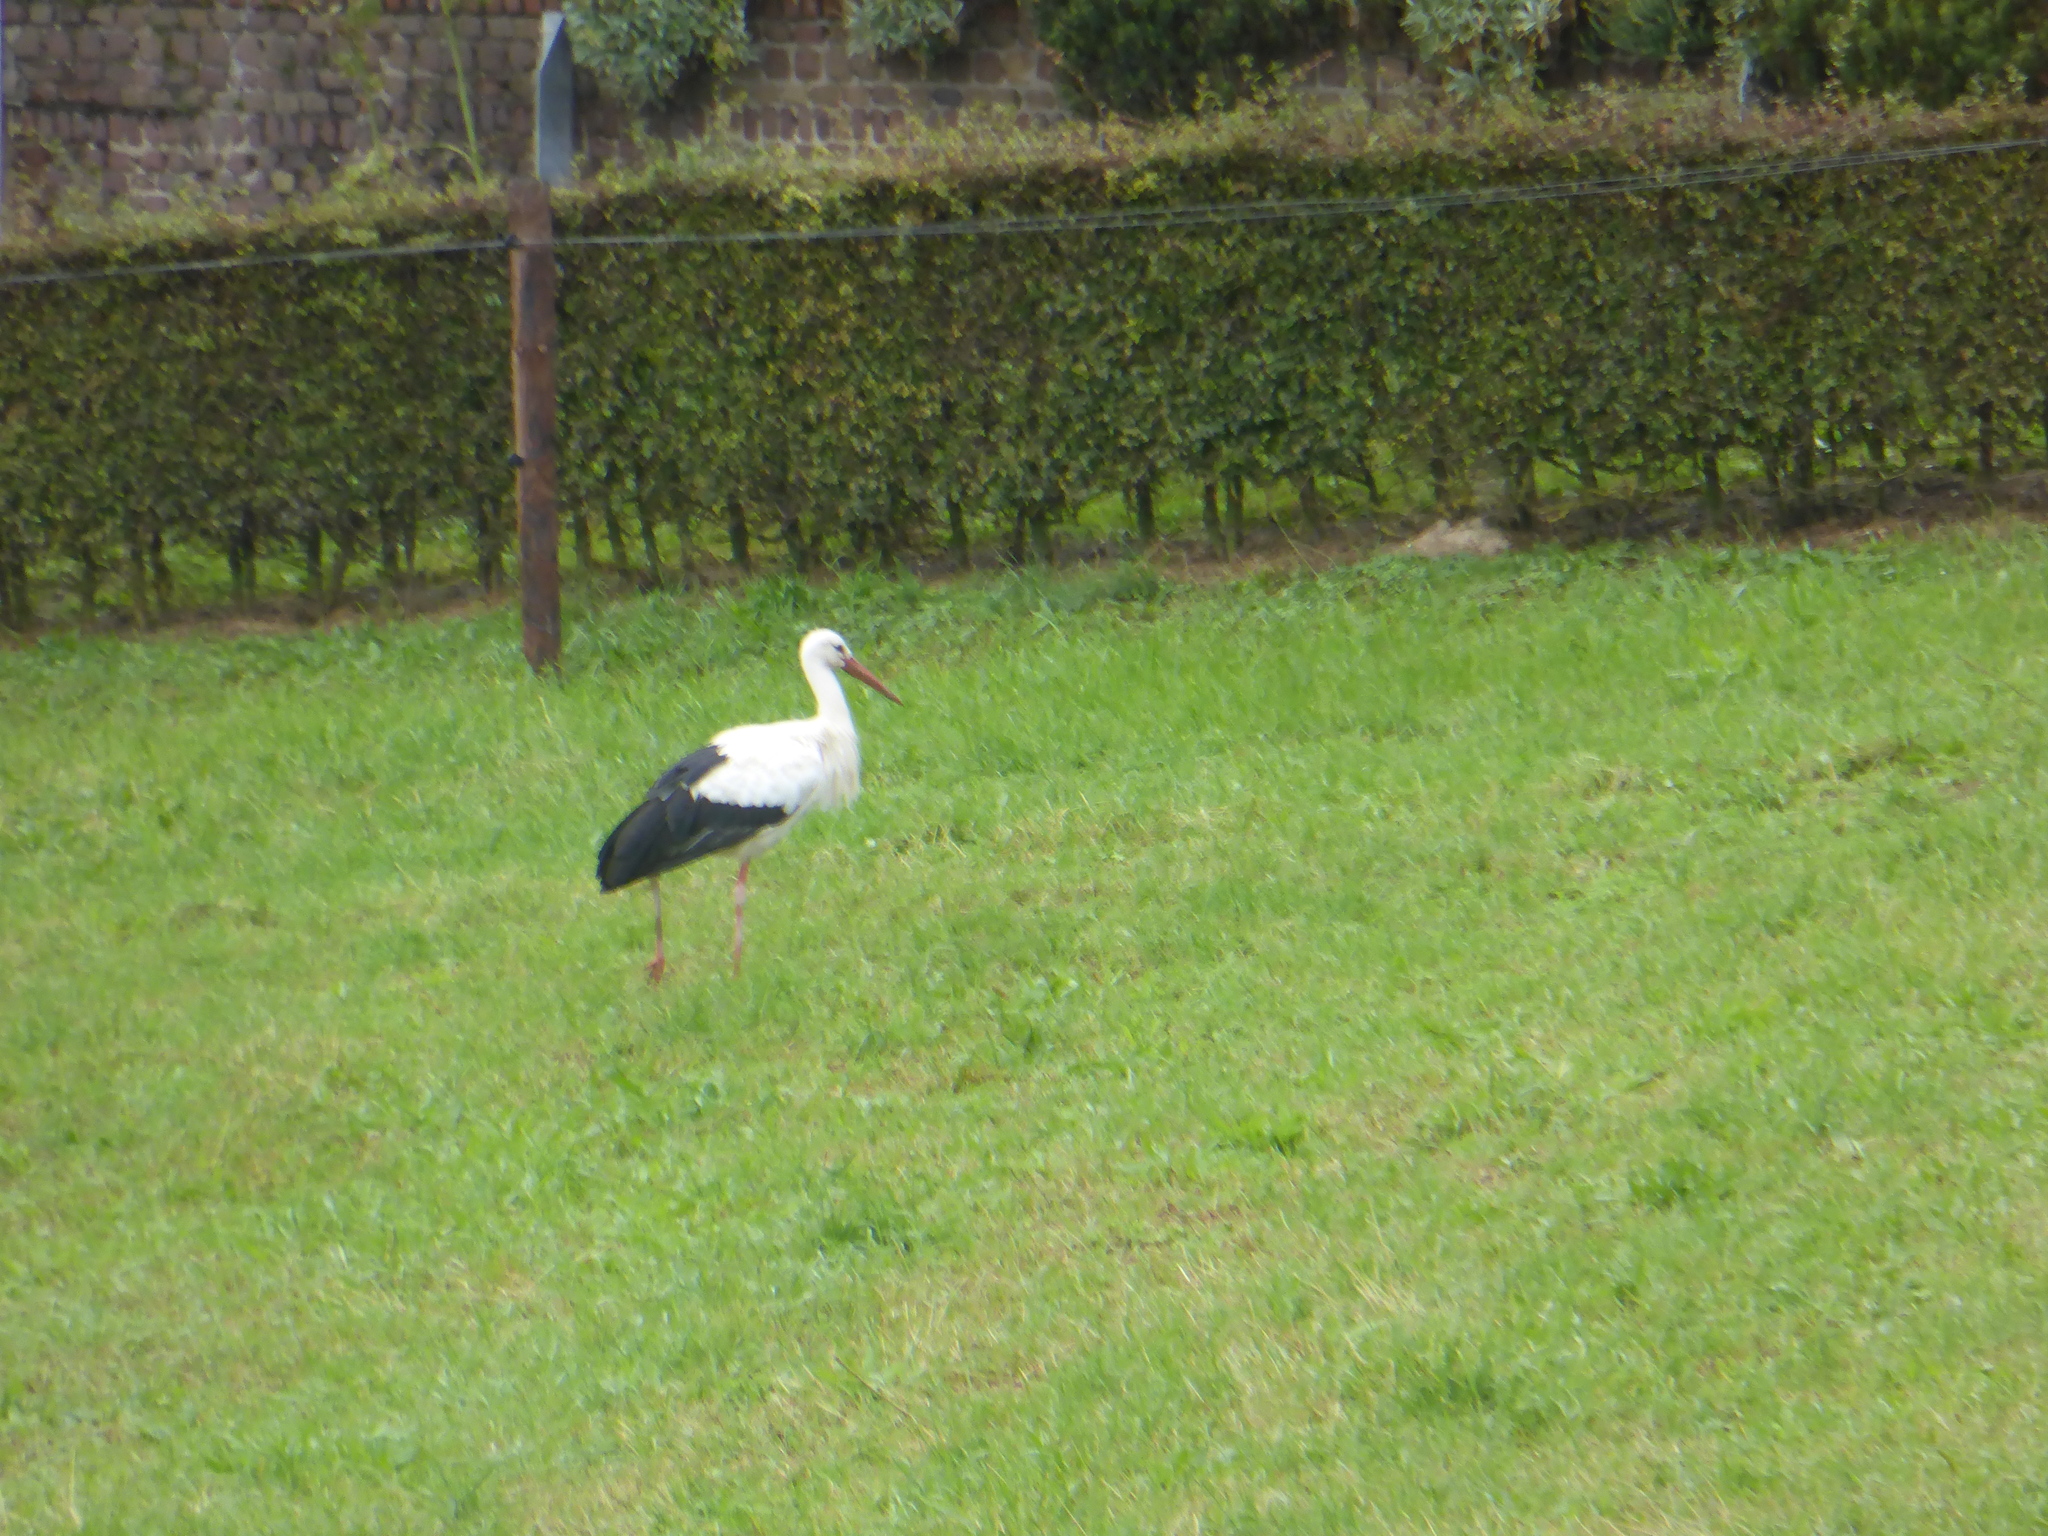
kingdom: Animalia
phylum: Chordata
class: Aves
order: Ciconiiformes
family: Ciconiidae
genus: Ciconia
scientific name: Ciconia ciconia
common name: White stork
